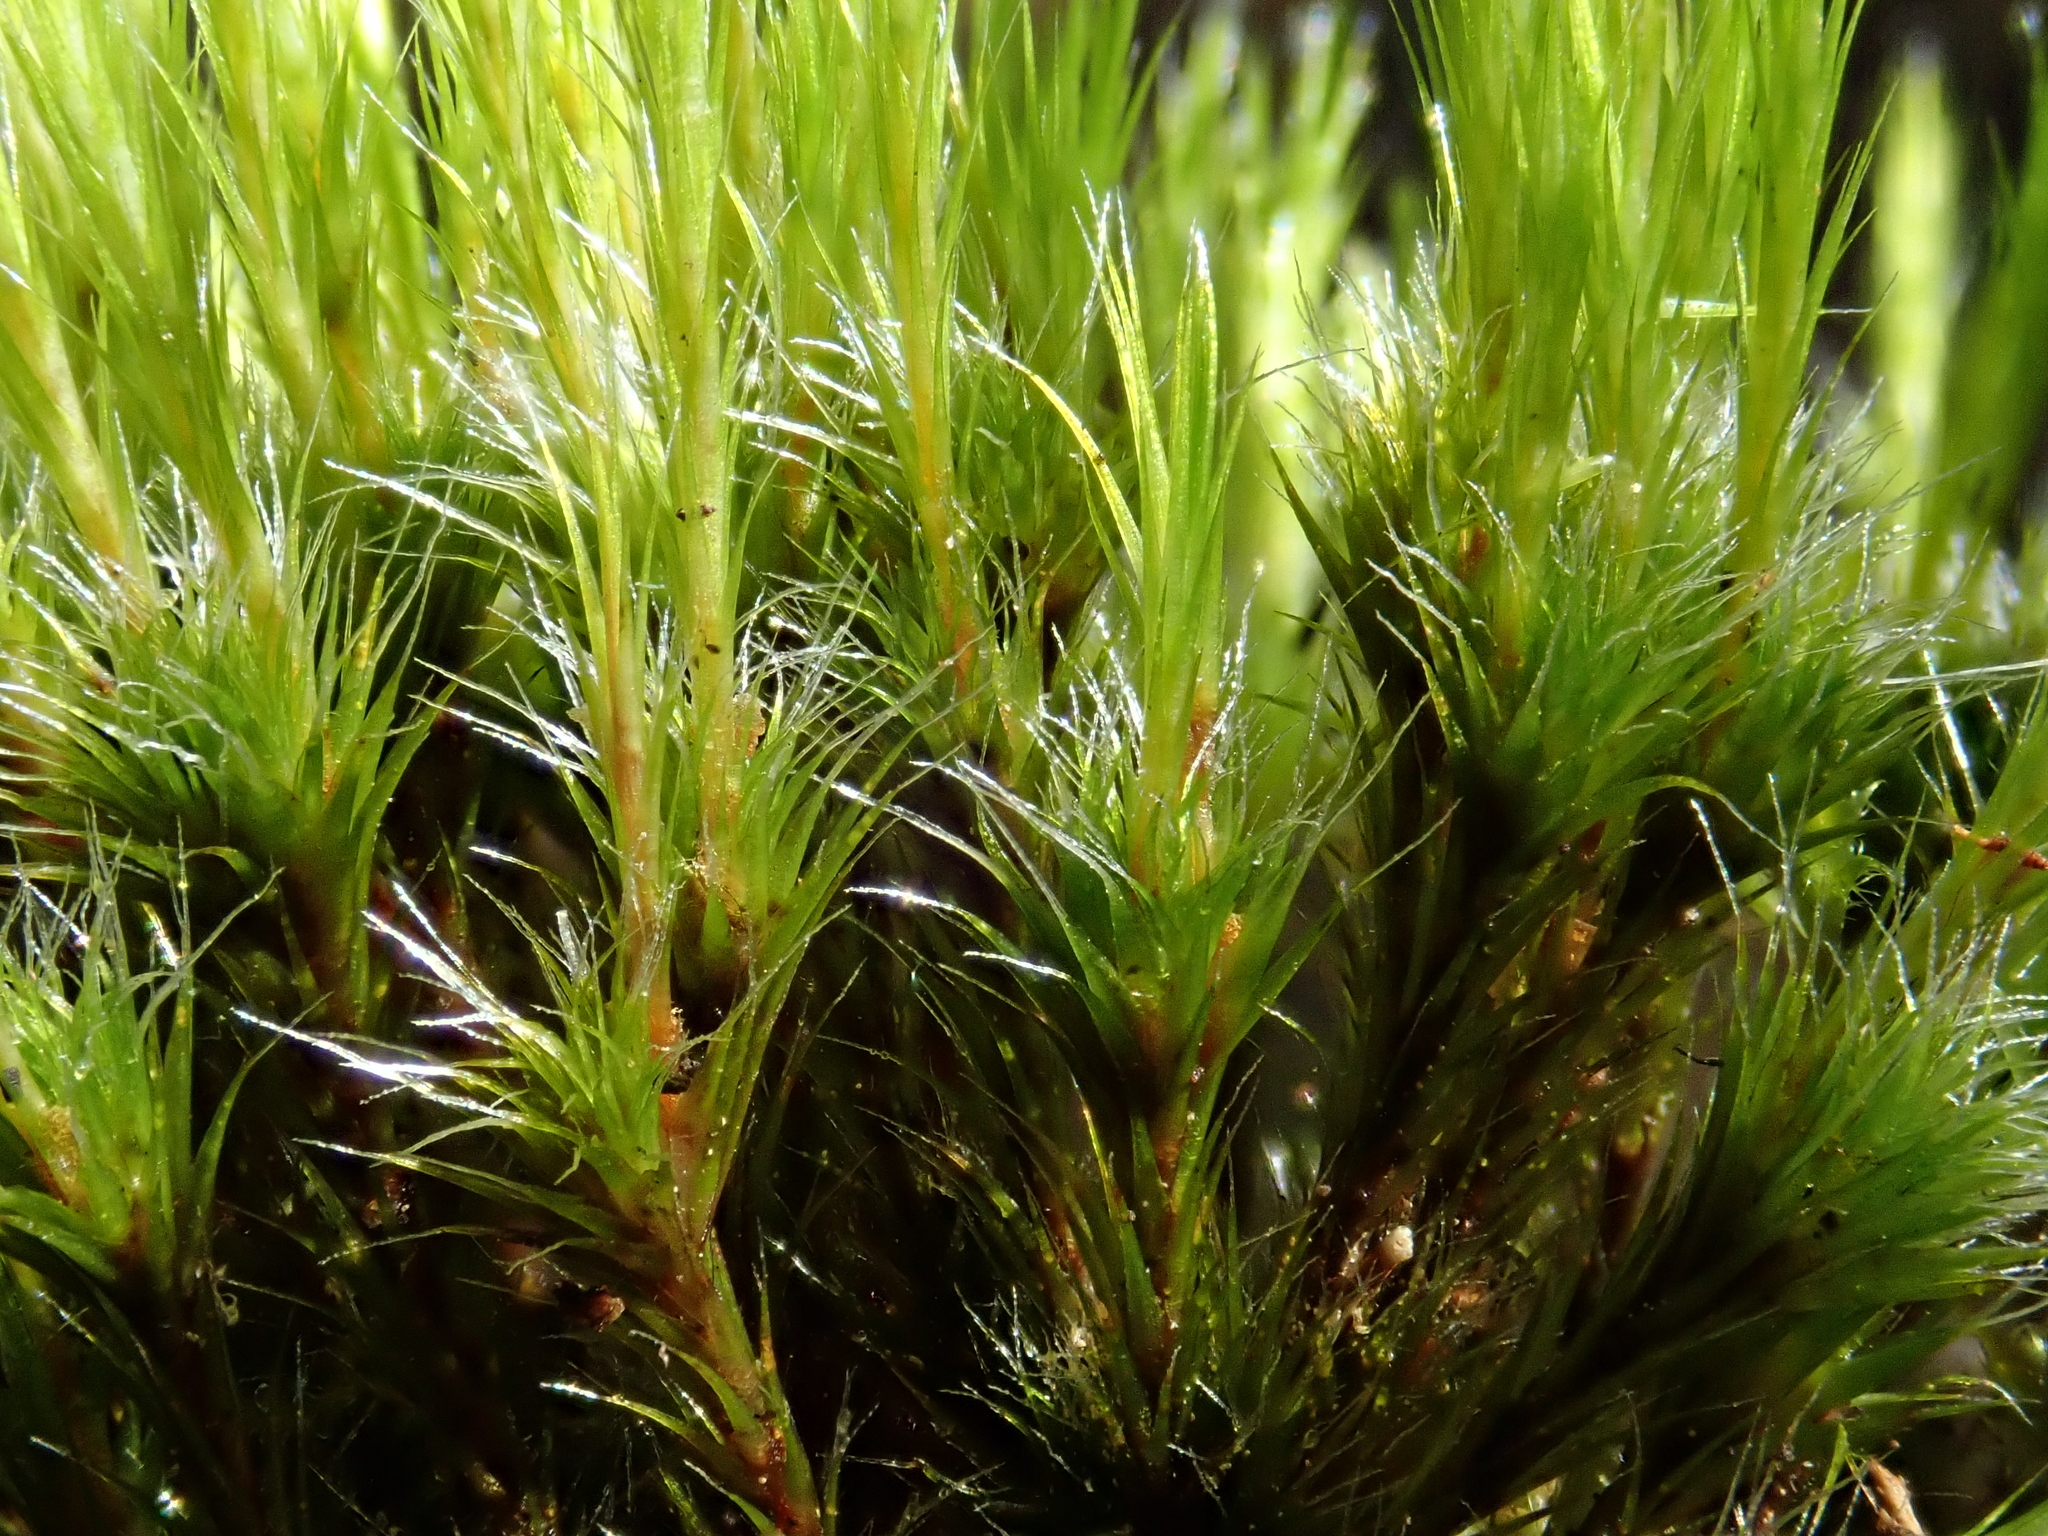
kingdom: Plantae
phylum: Bryophyta
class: Bryopsida
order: Dicranales
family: Leucobryaceae
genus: Campylopus
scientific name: Campylopus introflexus
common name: Heath star moss
